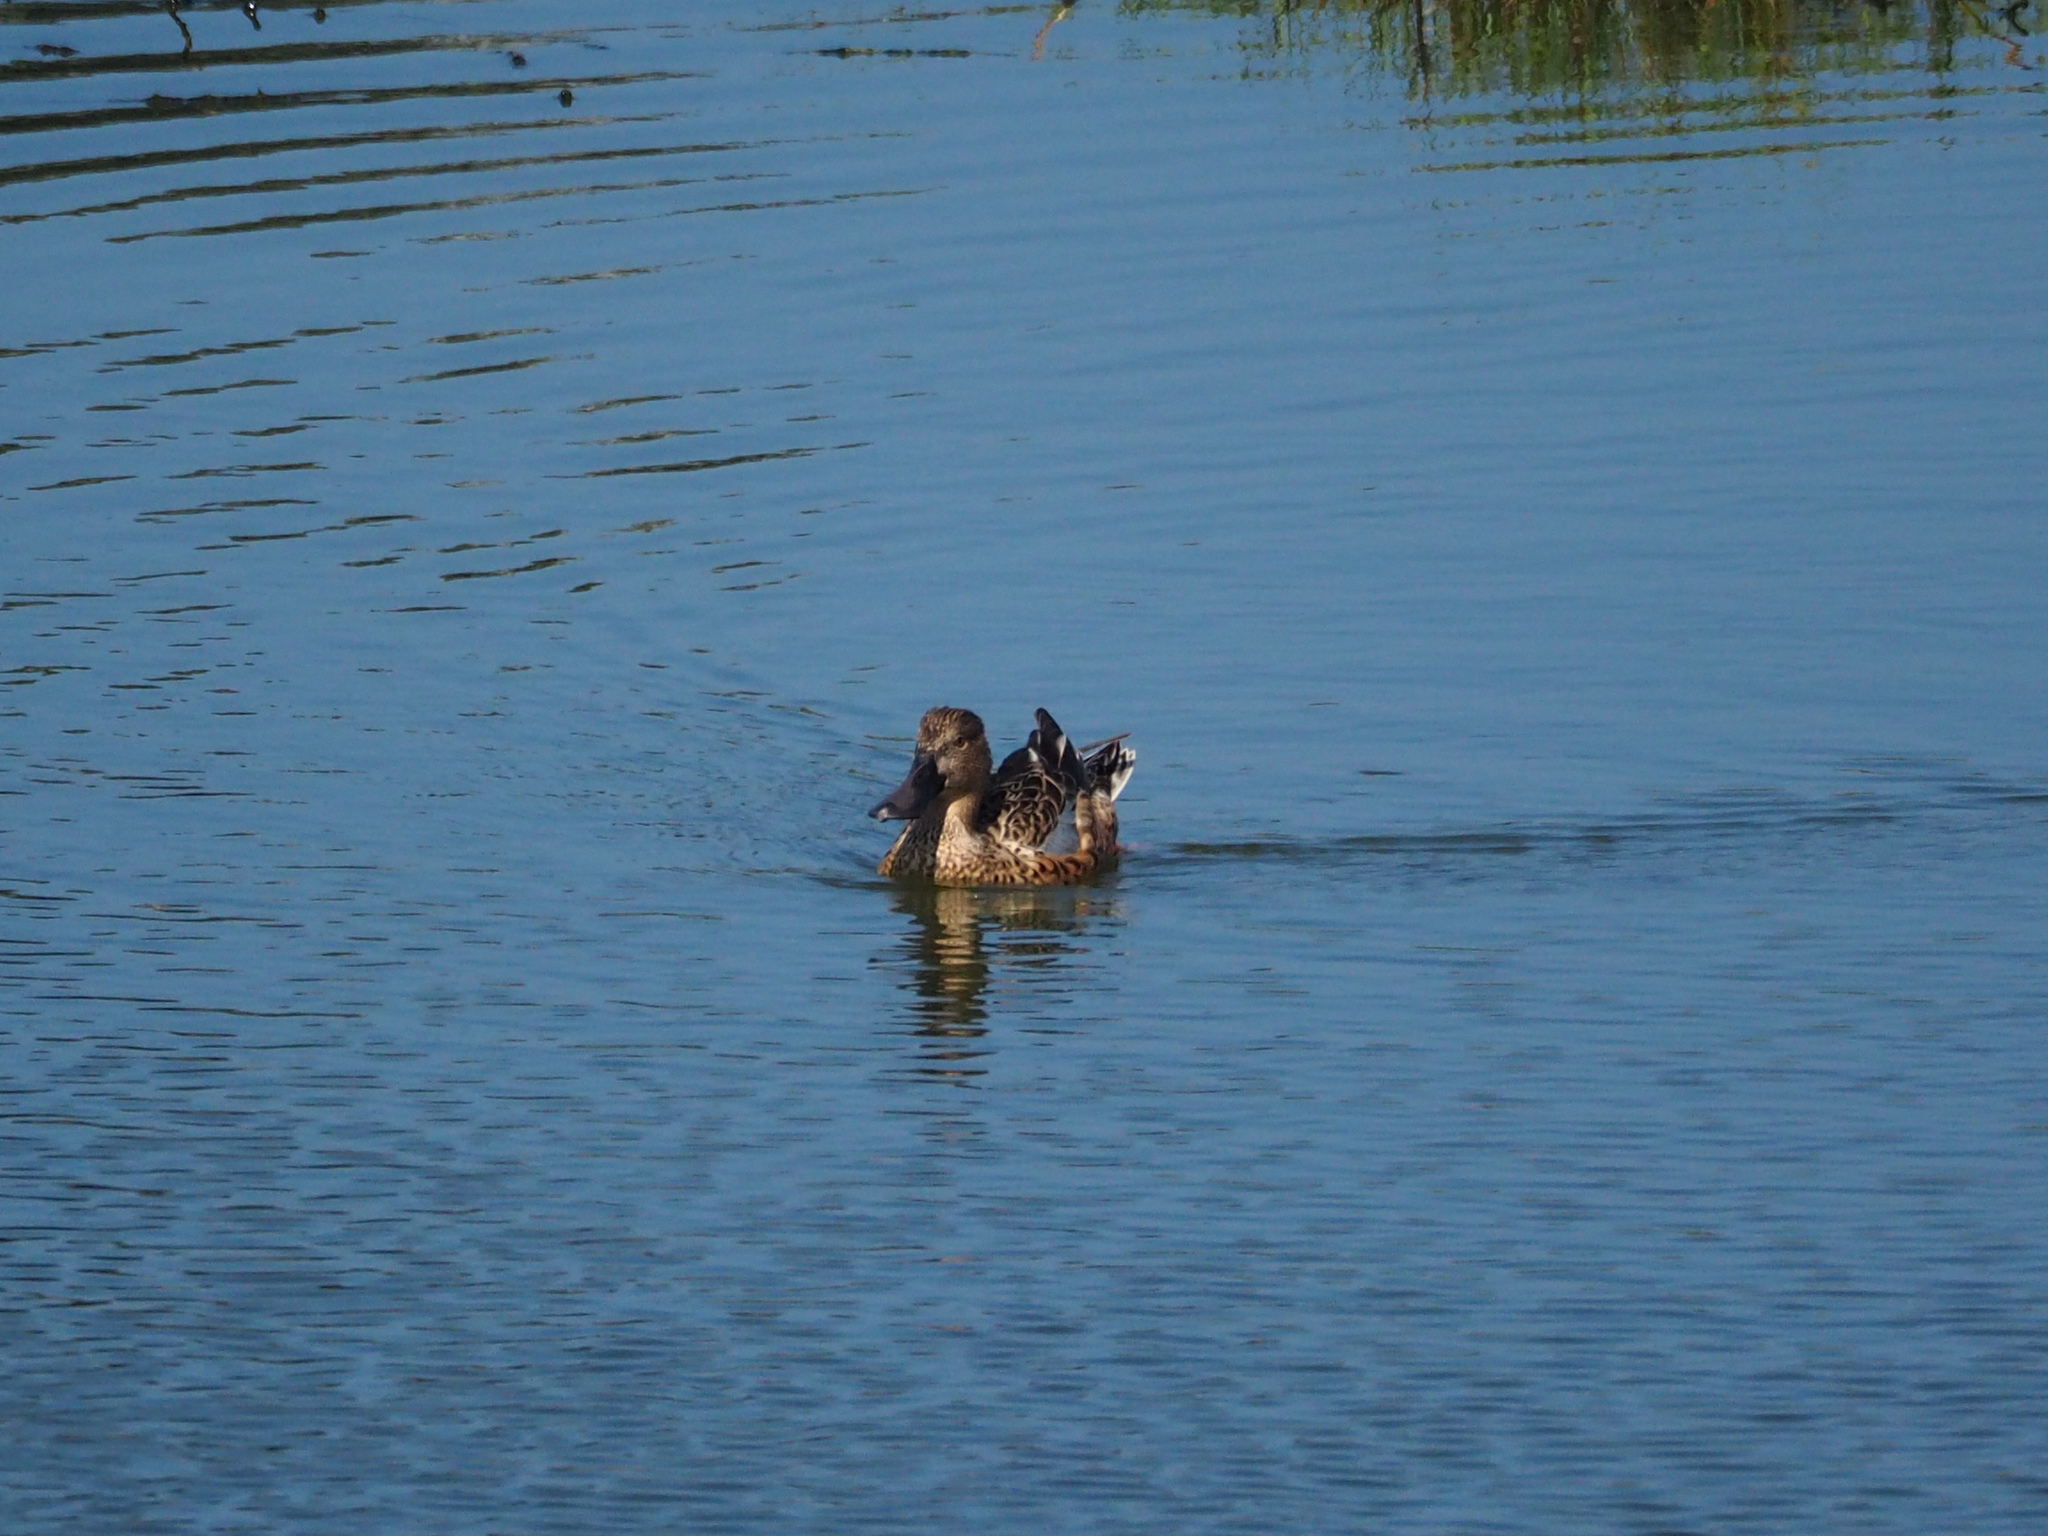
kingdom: Animalia
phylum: Chordata
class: Aves
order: Anseriformes
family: Anatidae
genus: Spatula
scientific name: Spatula clypeata
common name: Northern shoveler
